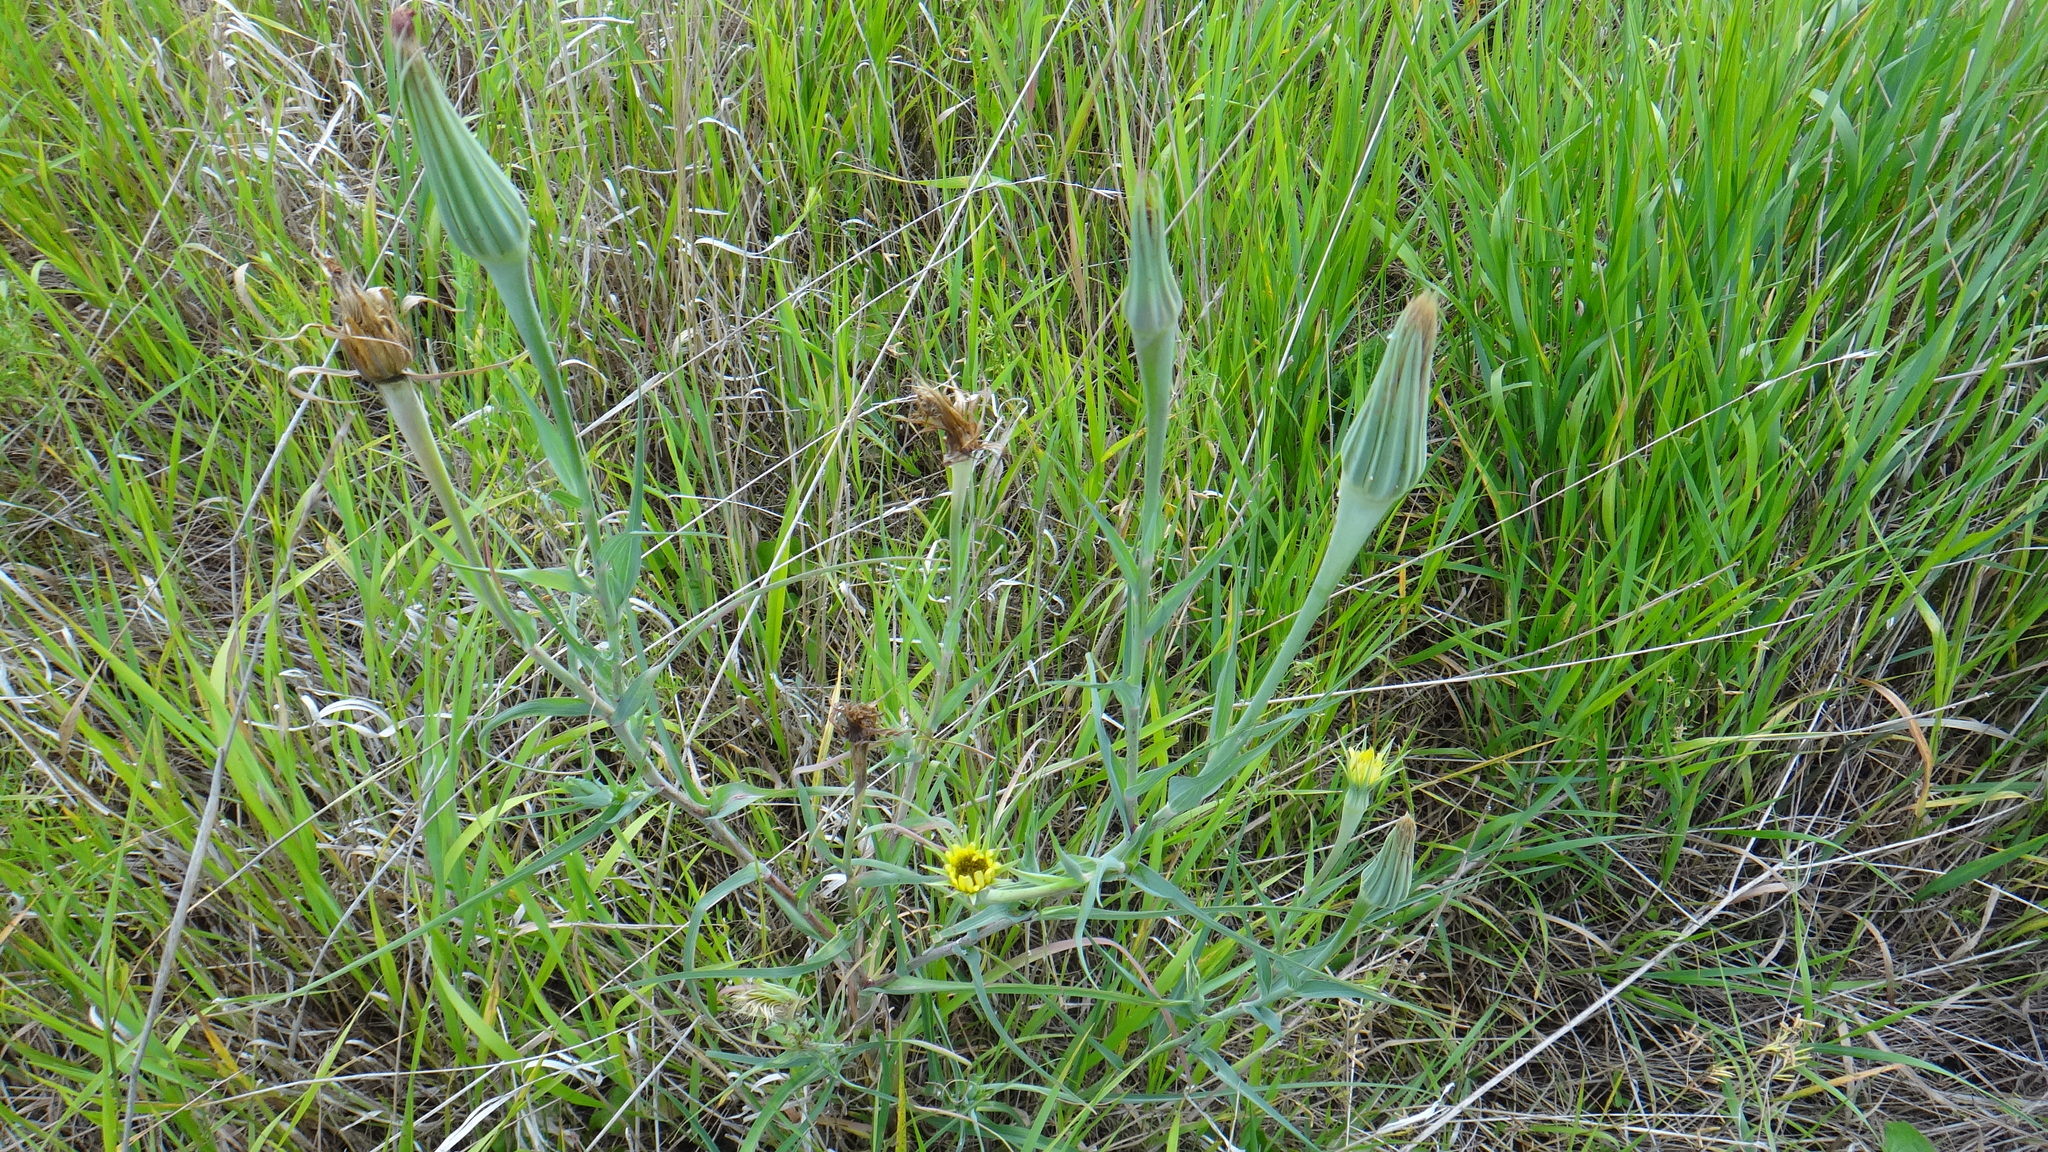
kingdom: Plantae
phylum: Tracheophyta
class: Magnoliopsida
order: Asterales
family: Asteraceae
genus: Tragopogon
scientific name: Tragopogon dubius
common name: Yellow salsify
